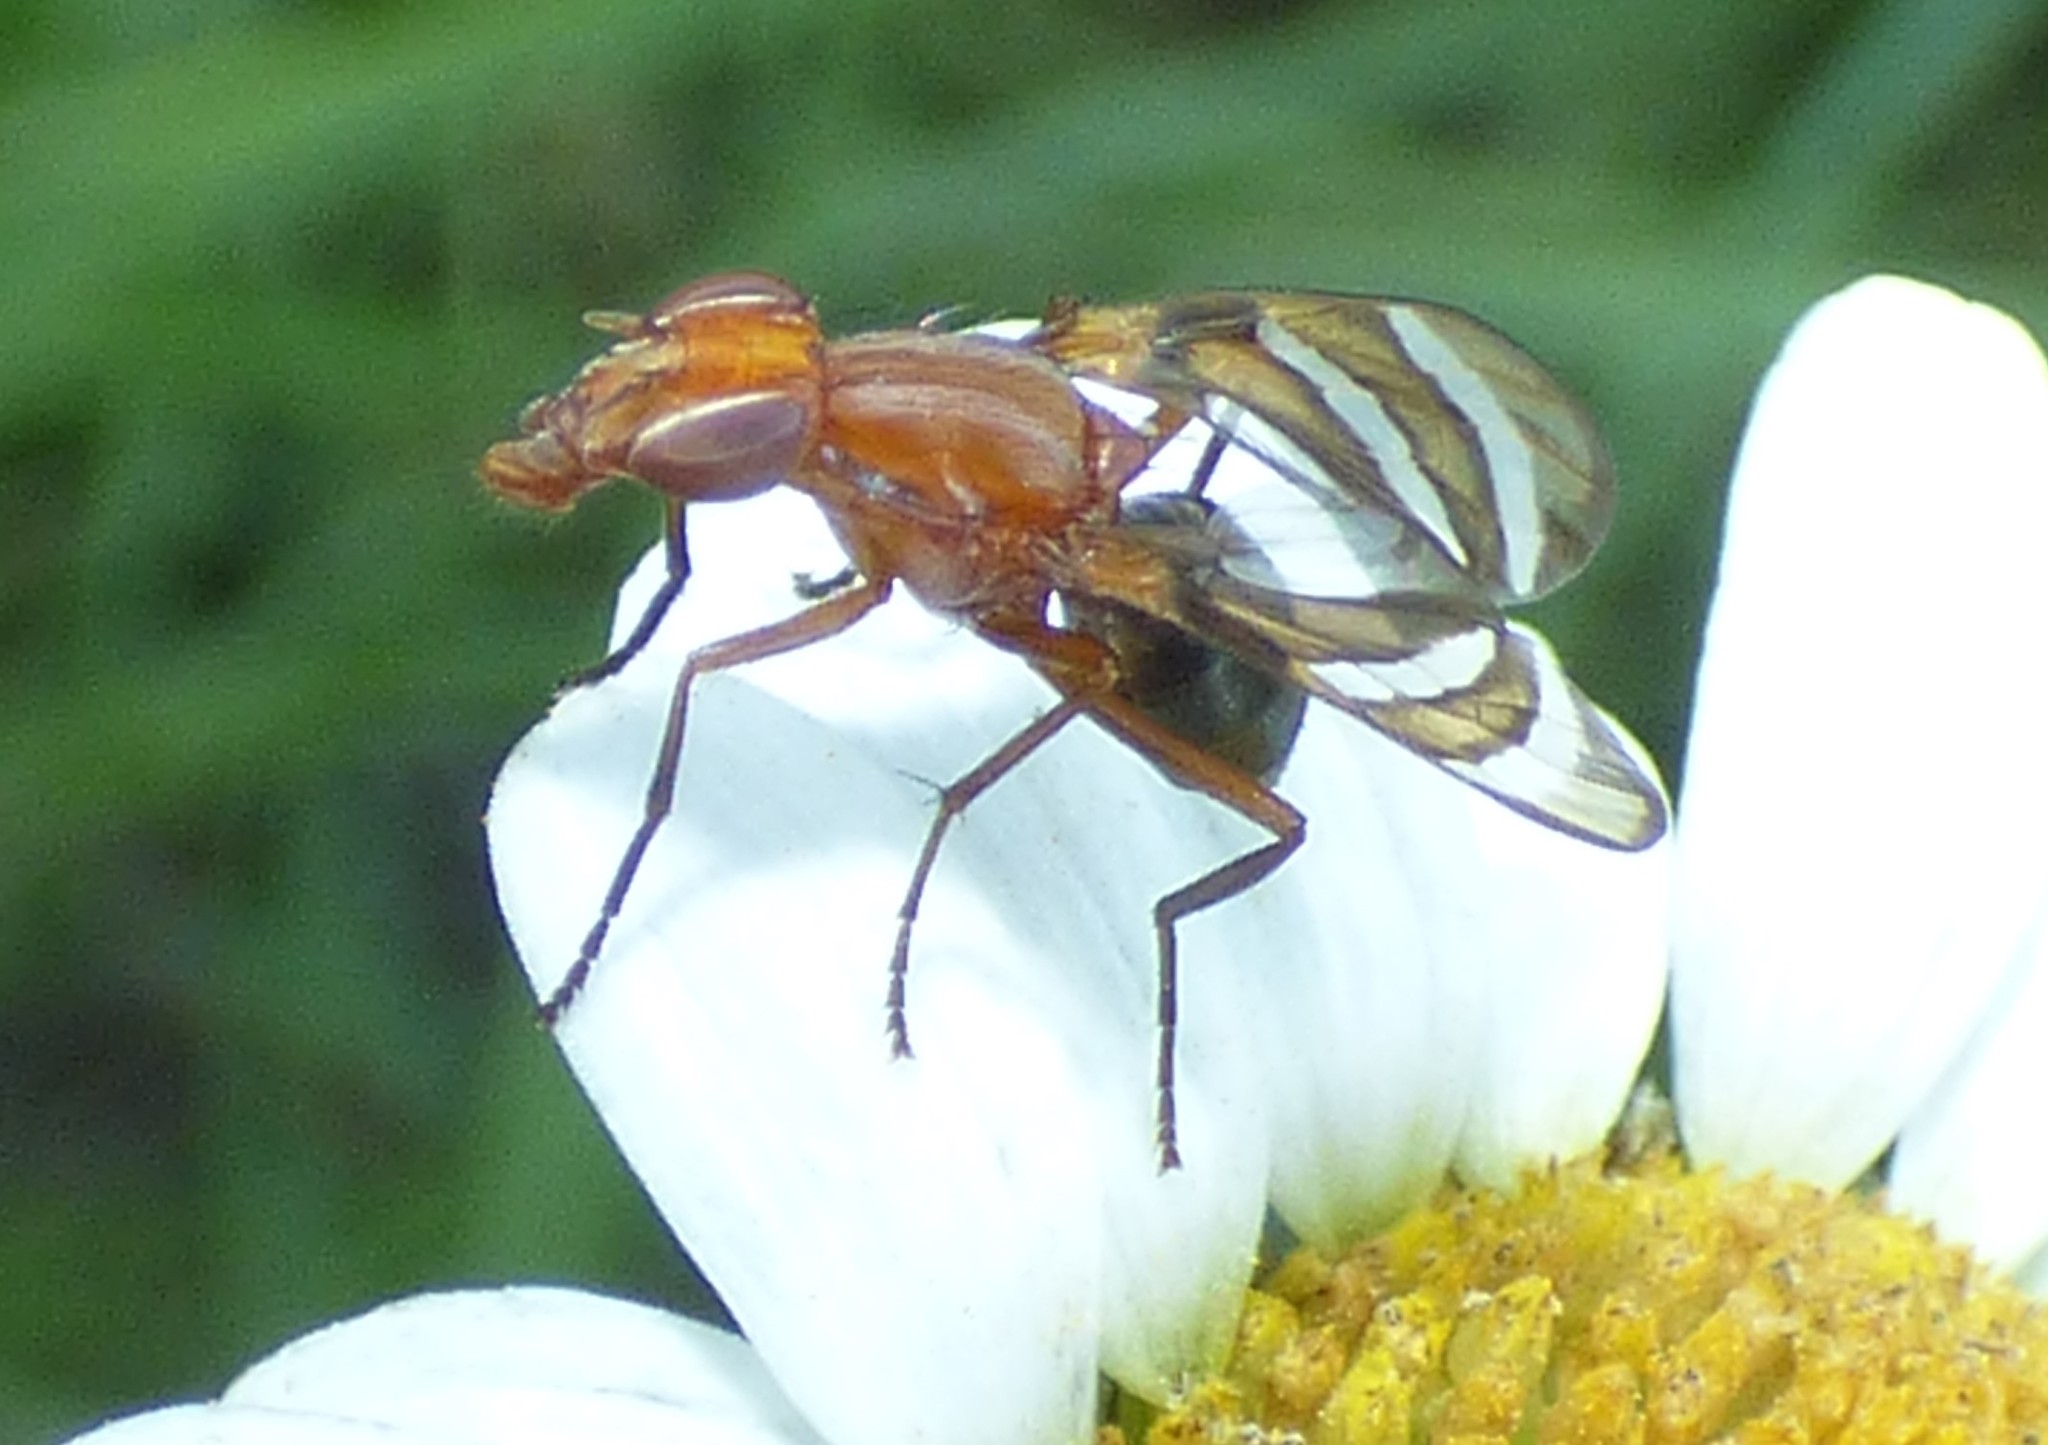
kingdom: Animalia
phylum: Arthropoda
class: Insecta
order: Diptera
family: Ulidiidae
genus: Tritoxa
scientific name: Tritoxa incurva
